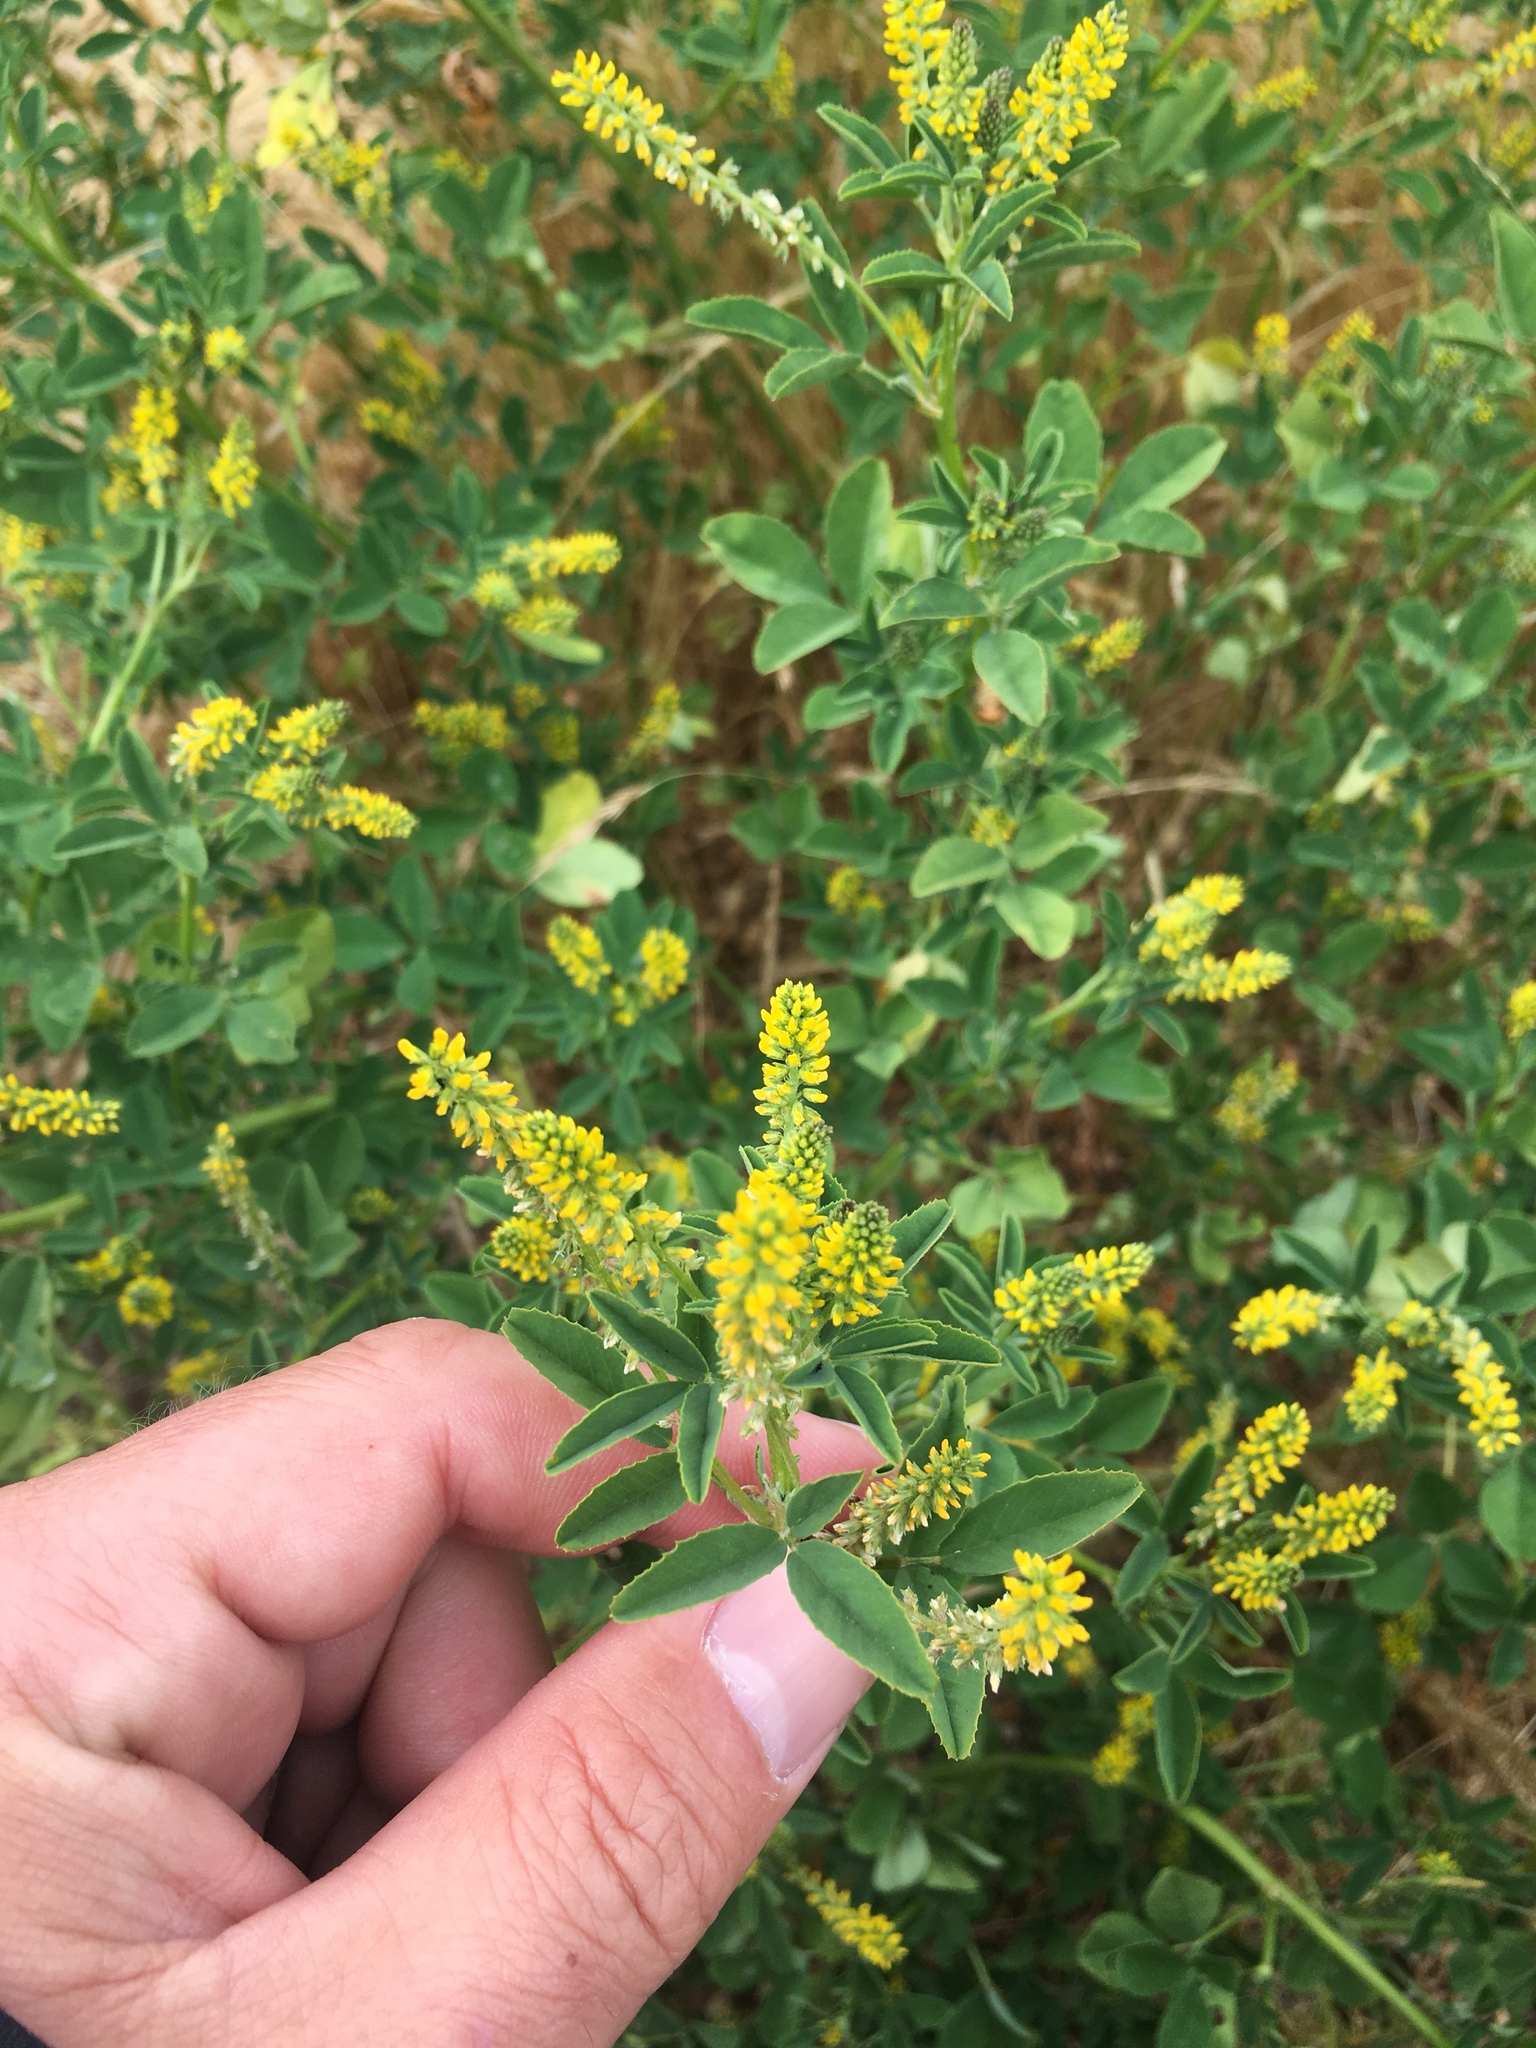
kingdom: Plantae
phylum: Tracheophyta
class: Magnoliopsida
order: Fabales
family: Fabaceae
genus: Melilotus
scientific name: Melilotus indicus
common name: Small melilot
